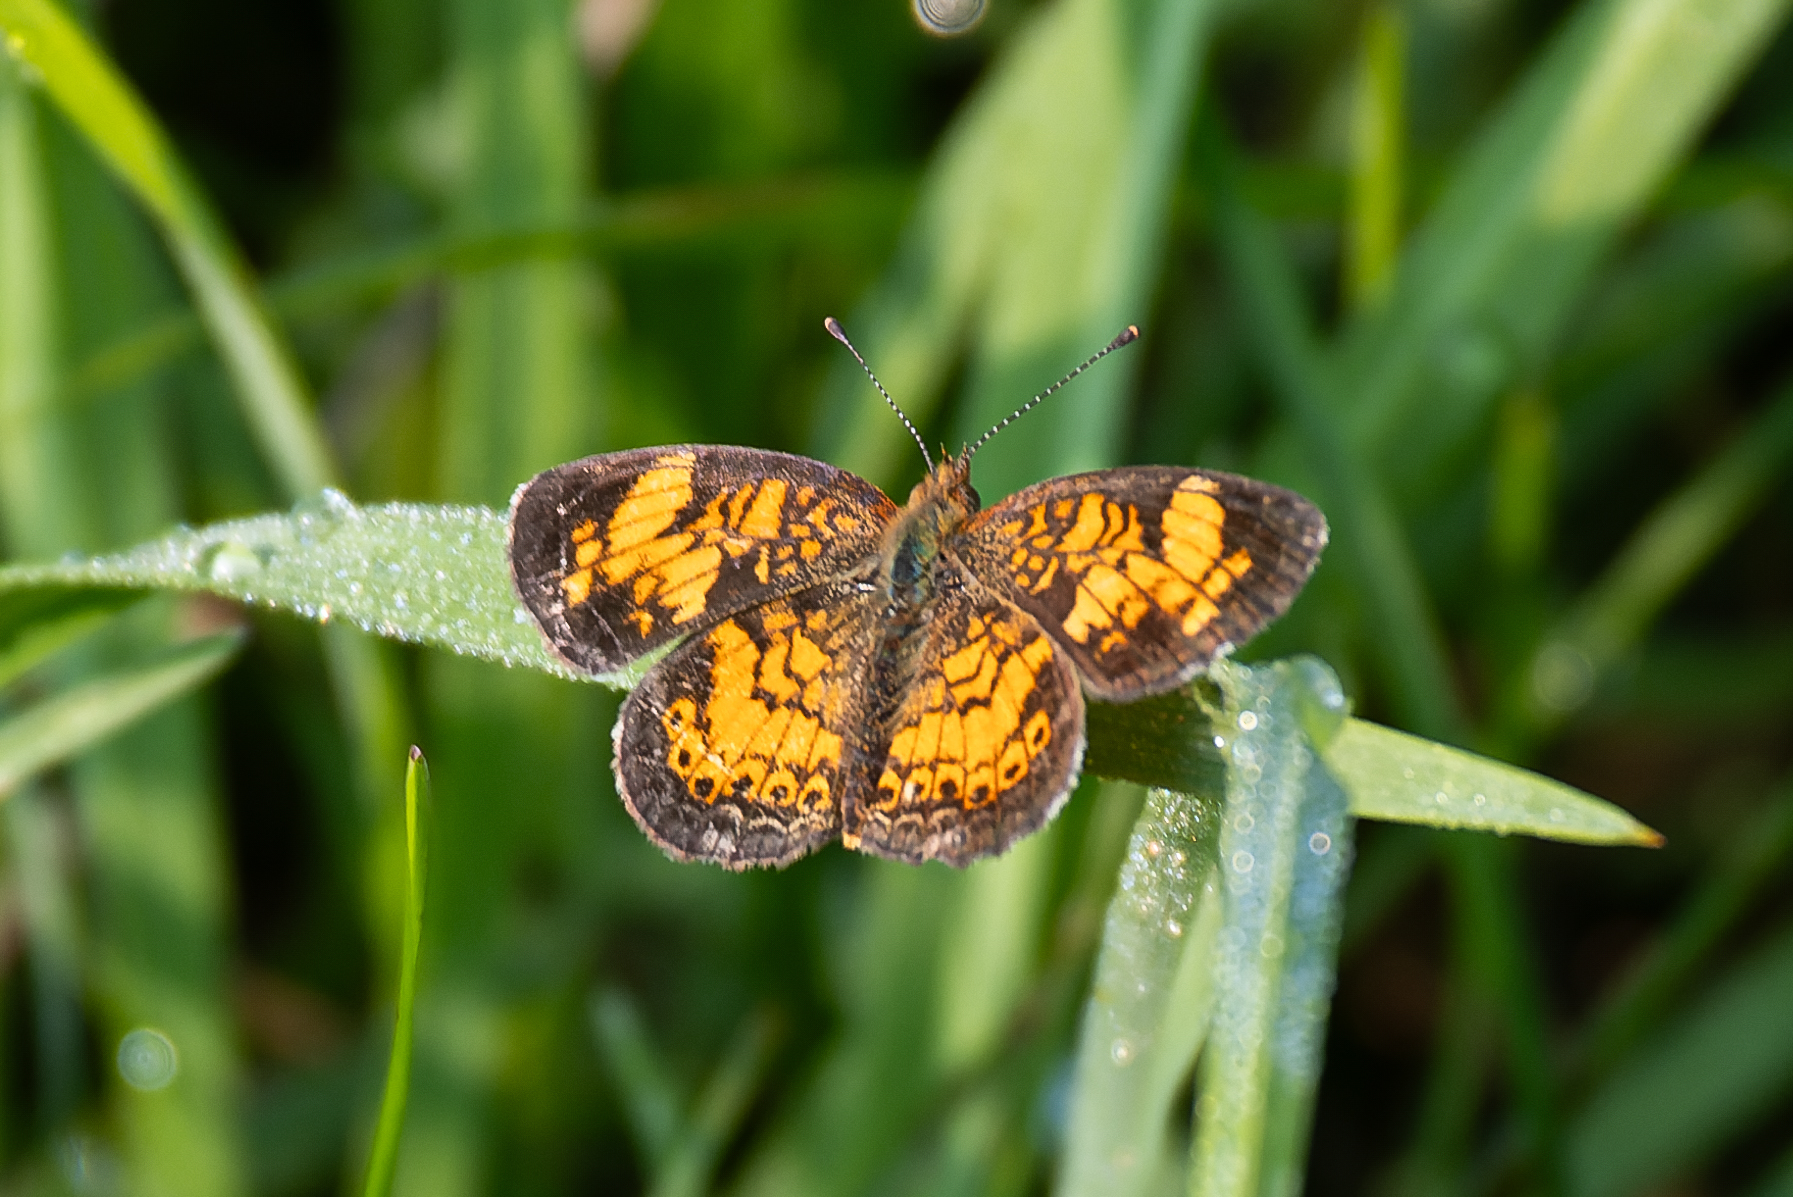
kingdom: Animalia
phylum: Arthropoda
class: Insecta
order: Lepidoptera
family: Nymphalidae
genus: Phyciodes
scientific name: Phyciodes tharos
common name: Pearl crescent
